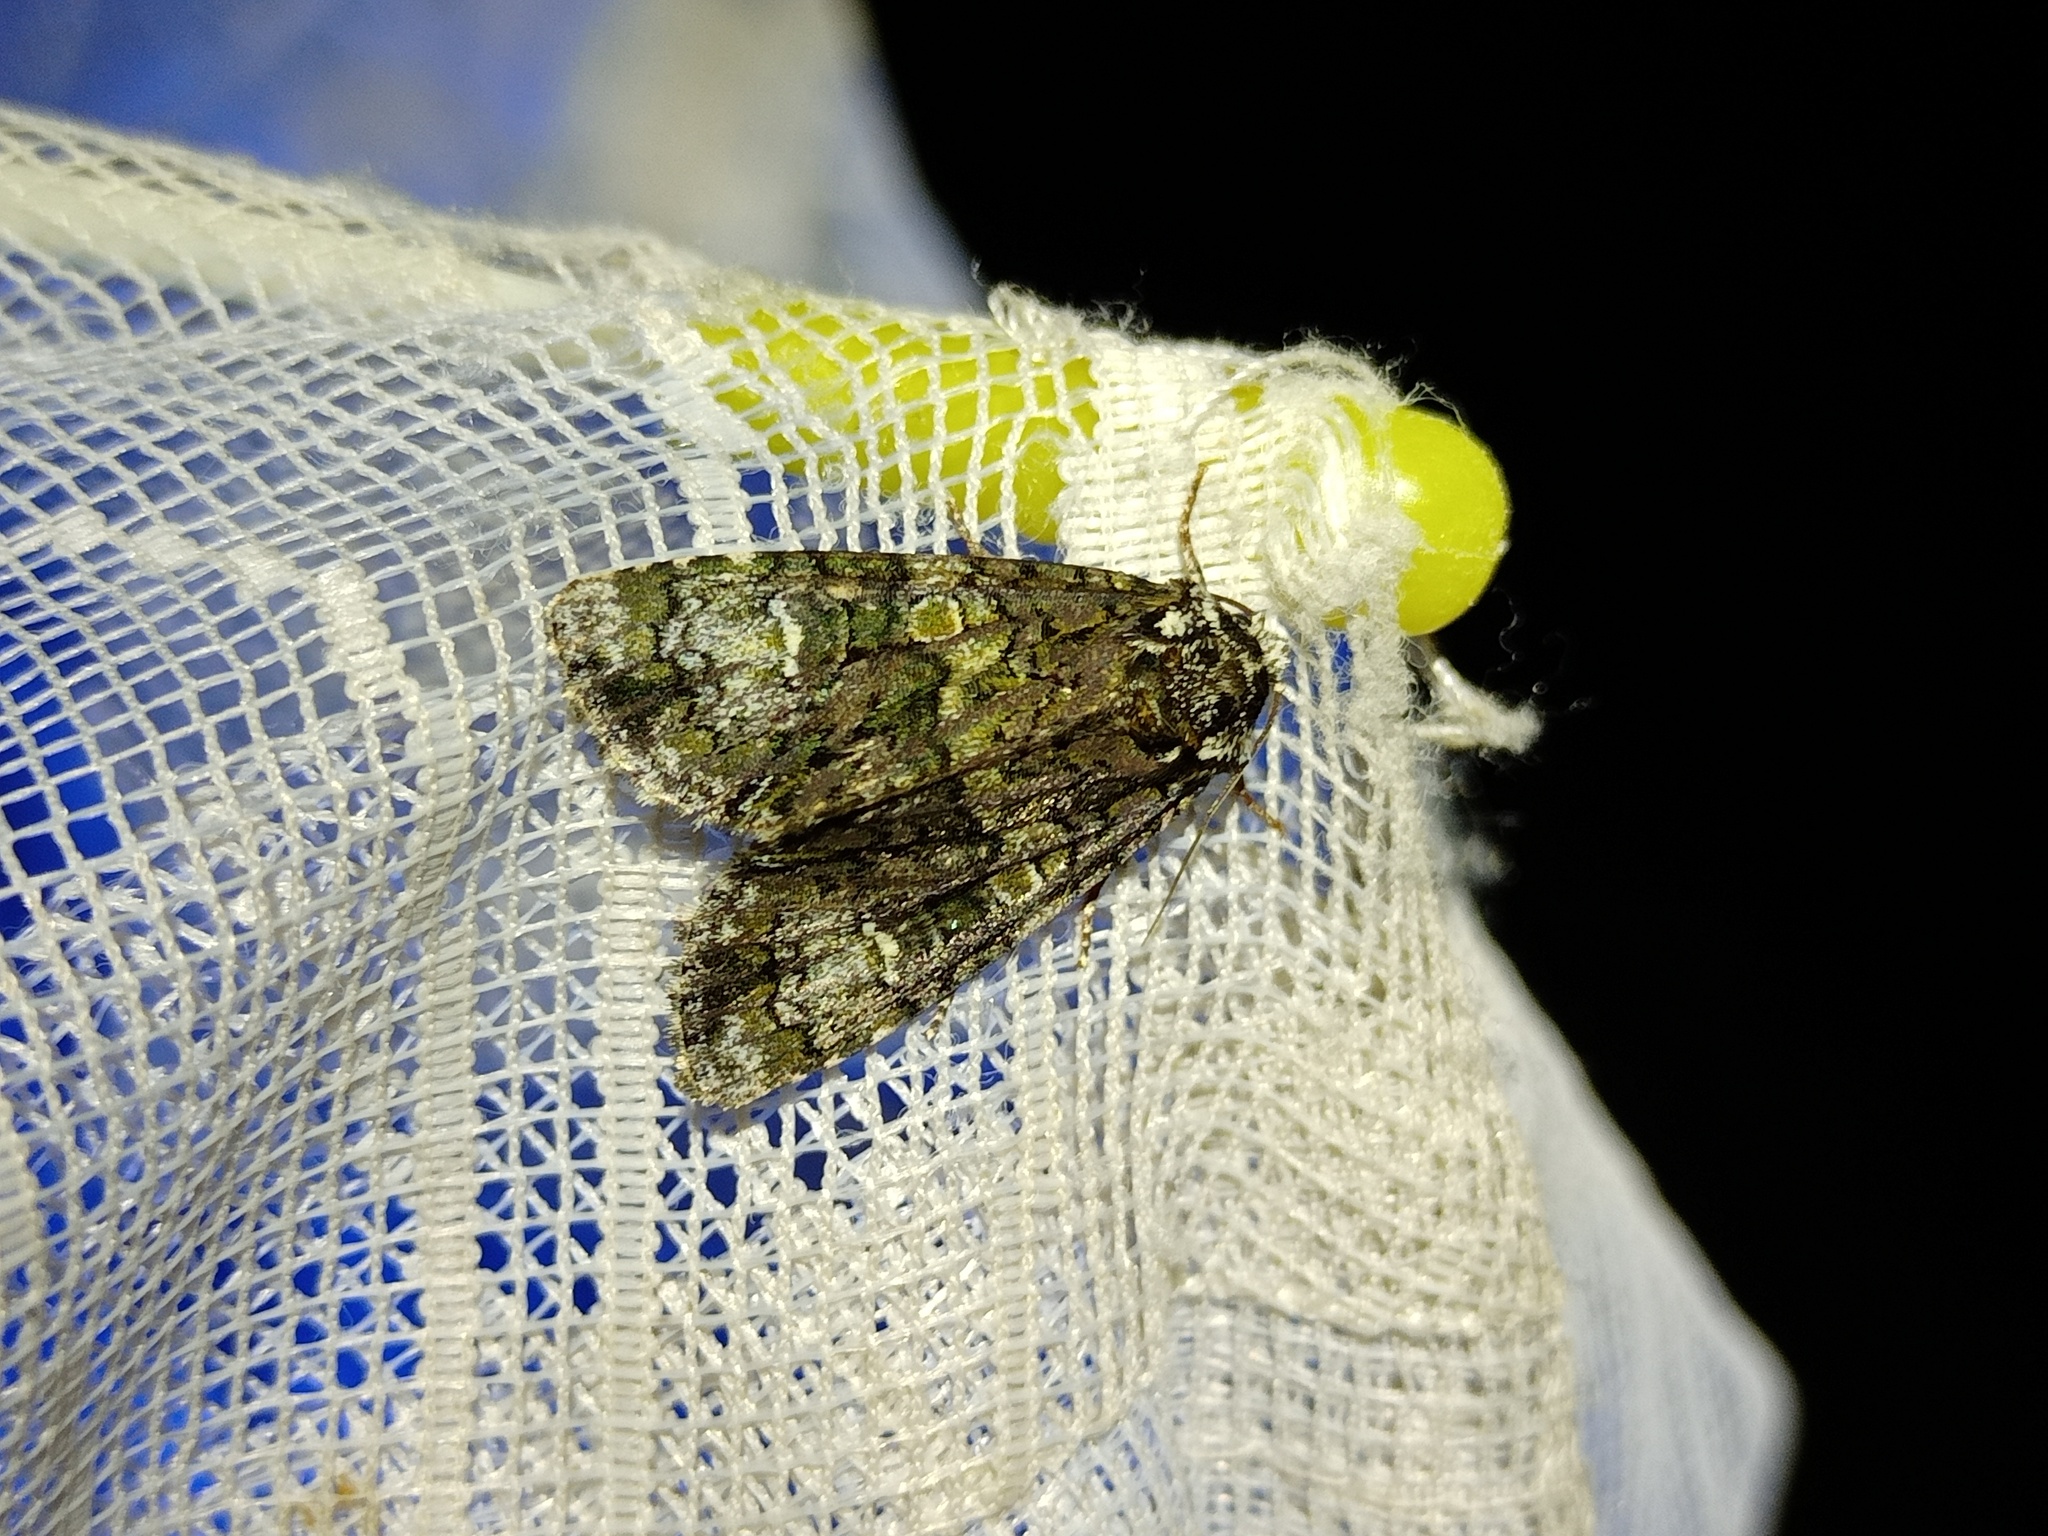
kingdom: Animalia
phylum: Arthropoda
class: Insecta
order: Lepidoptera
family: Noctuidae
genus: Craniophora
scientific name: Craniophora ligustri
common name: Coronet
